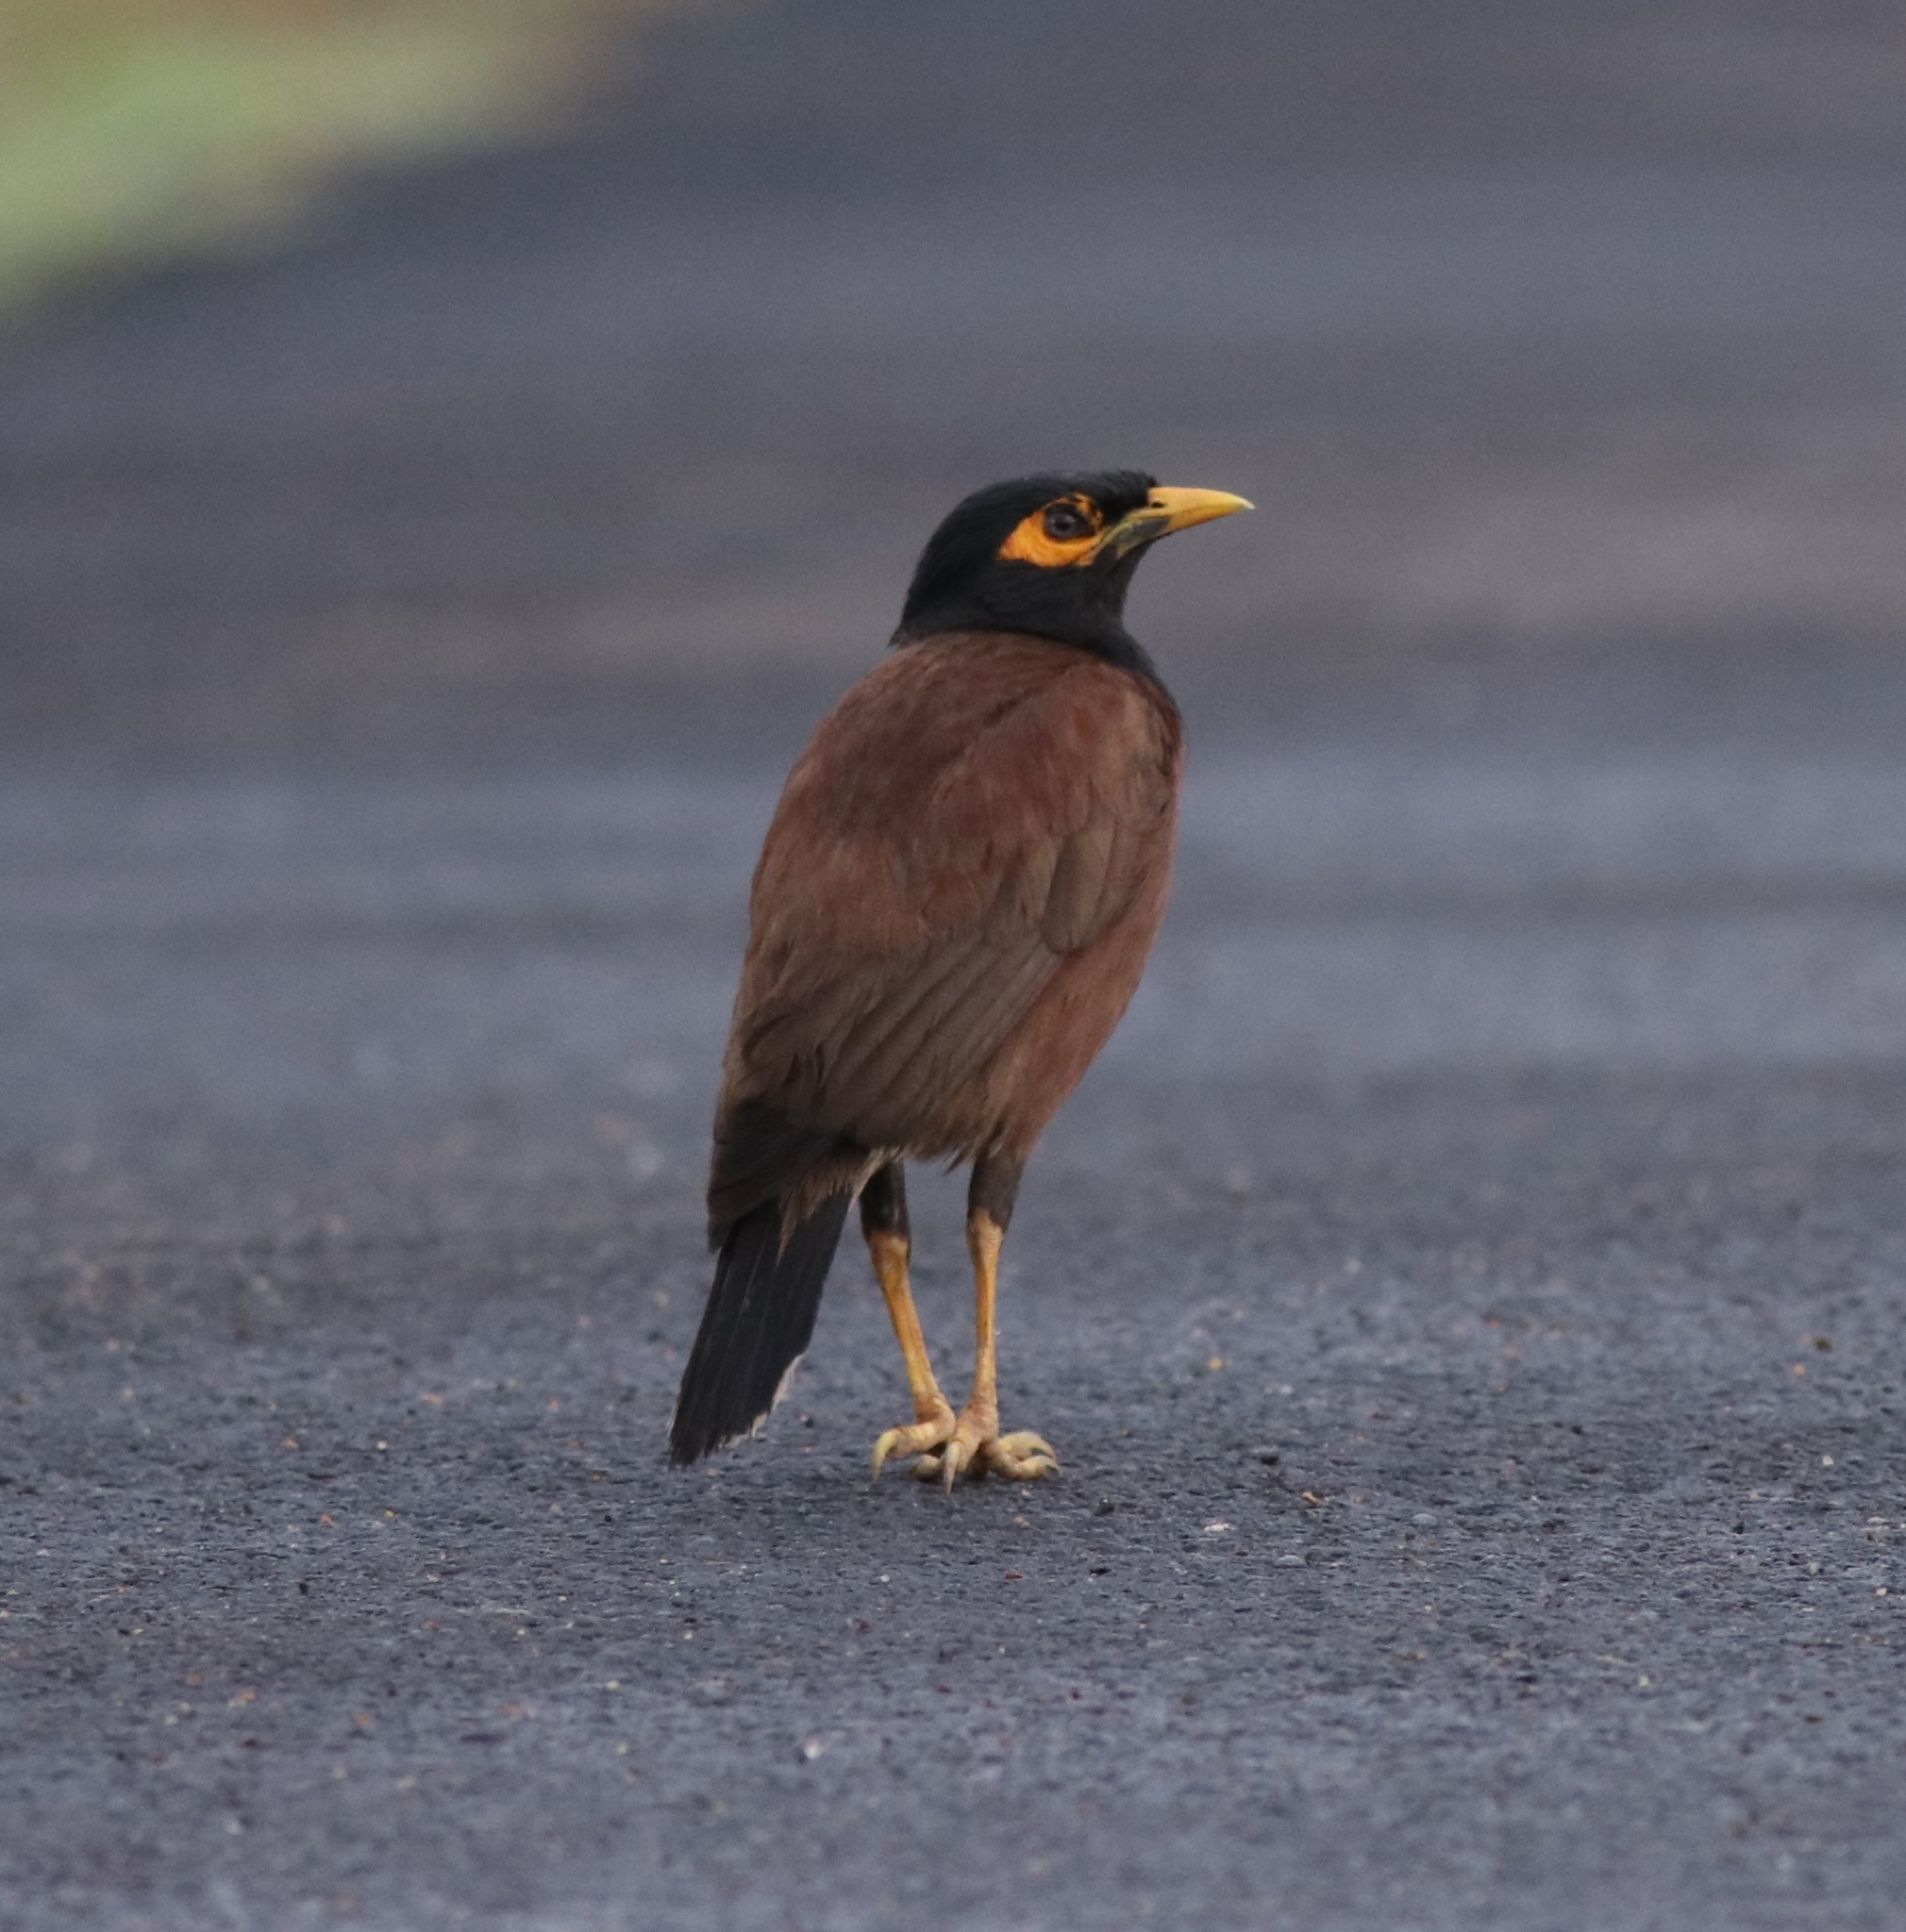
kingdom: Animalia
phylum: Chordata
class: Aves
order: Passeriformes
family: Sturnidae
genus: Acridotheres
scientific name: Acridotheres tristis
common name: Common myna
